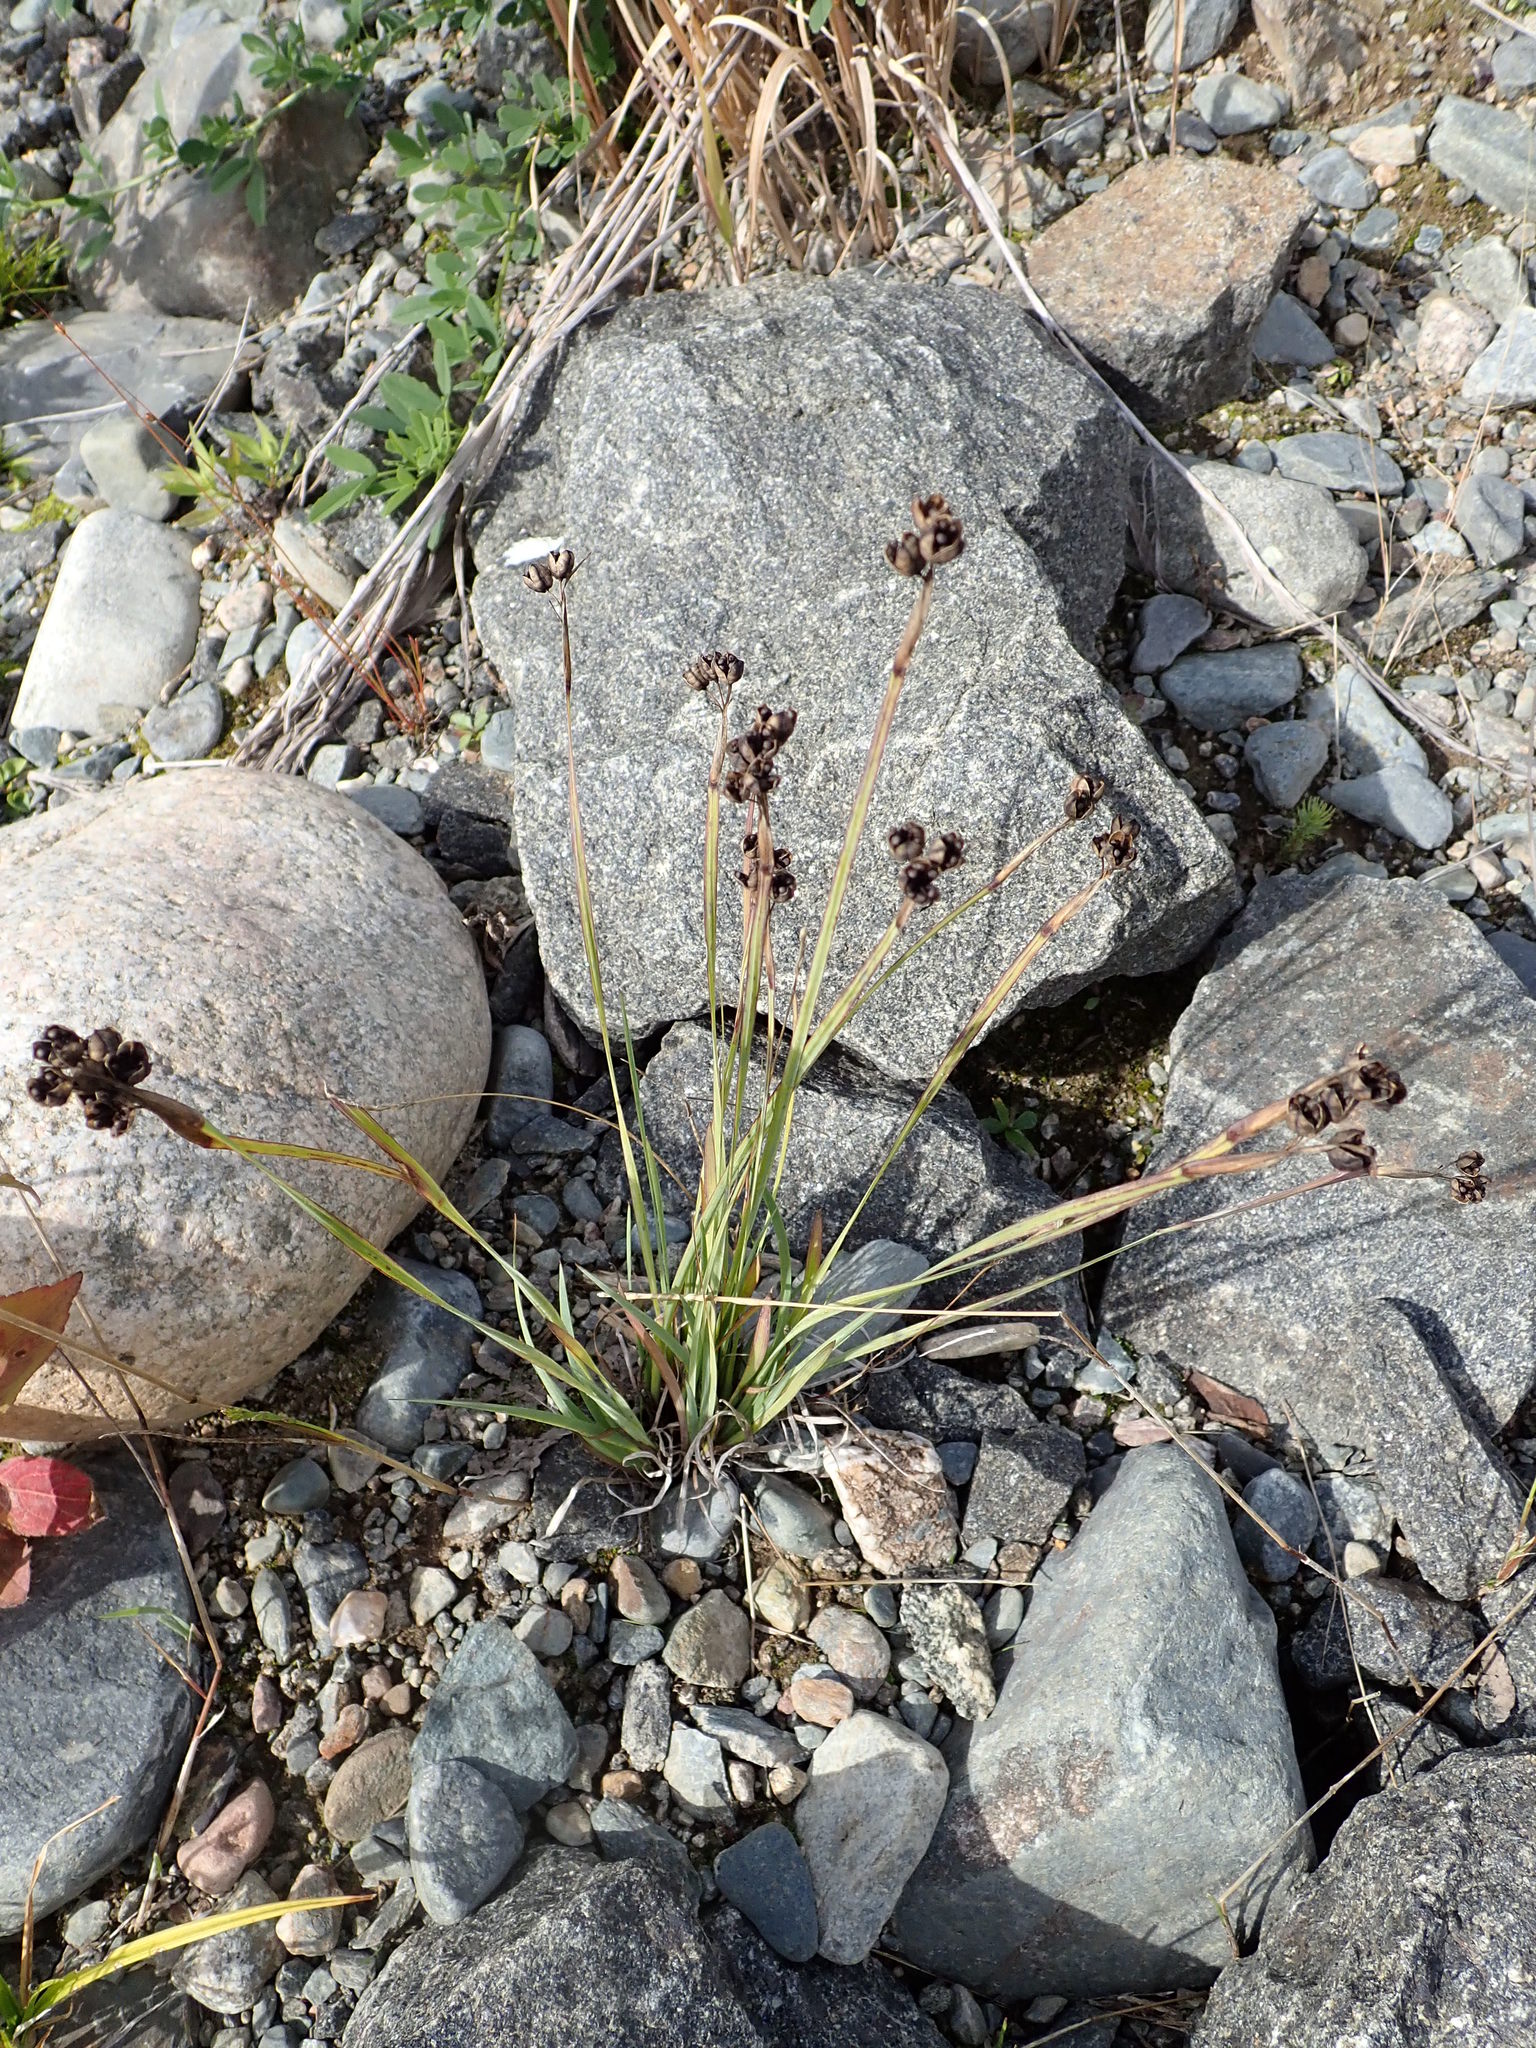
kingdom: Plantae
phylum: Tracheophyta
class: Liliopsida
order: Asparagales
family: Iridaceae
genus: Sisyrinchium
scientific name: Sisyrinchium montanum
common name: American blue-eyed-grass
